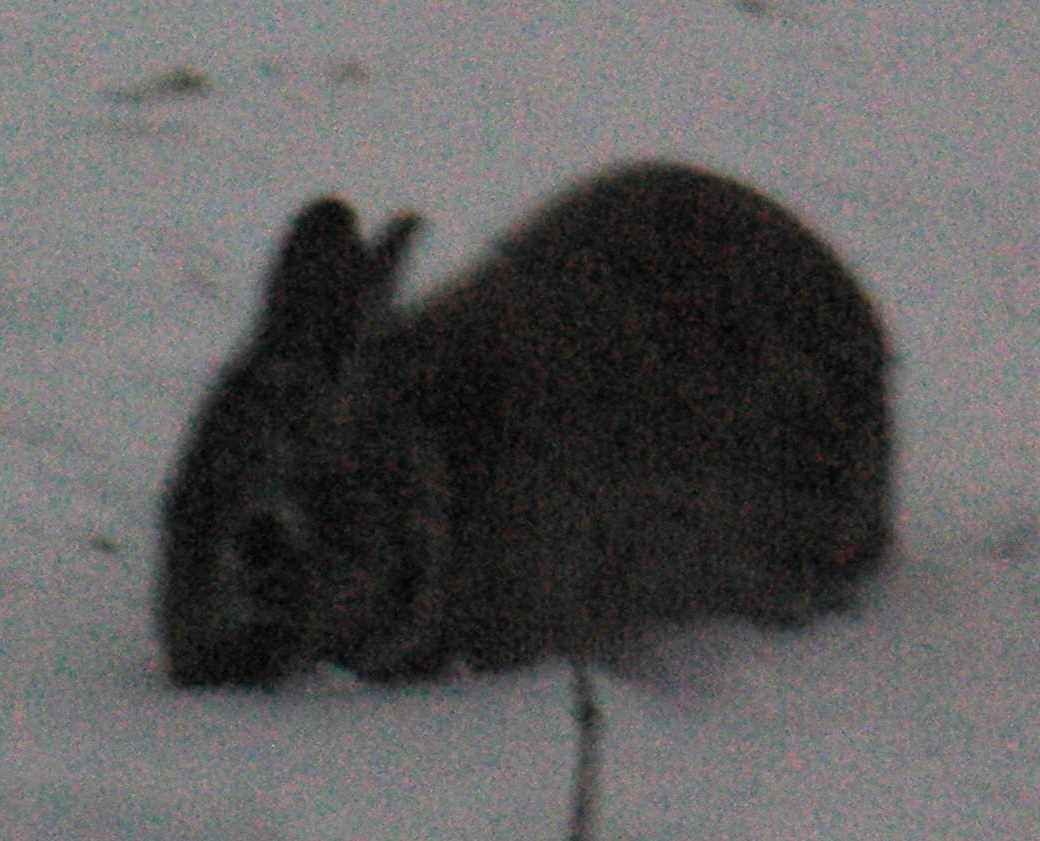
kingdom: Animalia
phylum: Chordata
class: Mammalia
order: Lagomorpha
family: Leporidae
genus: Sylvilagus
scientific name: Sylvilagus floridanus
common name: Eastern cottontail
